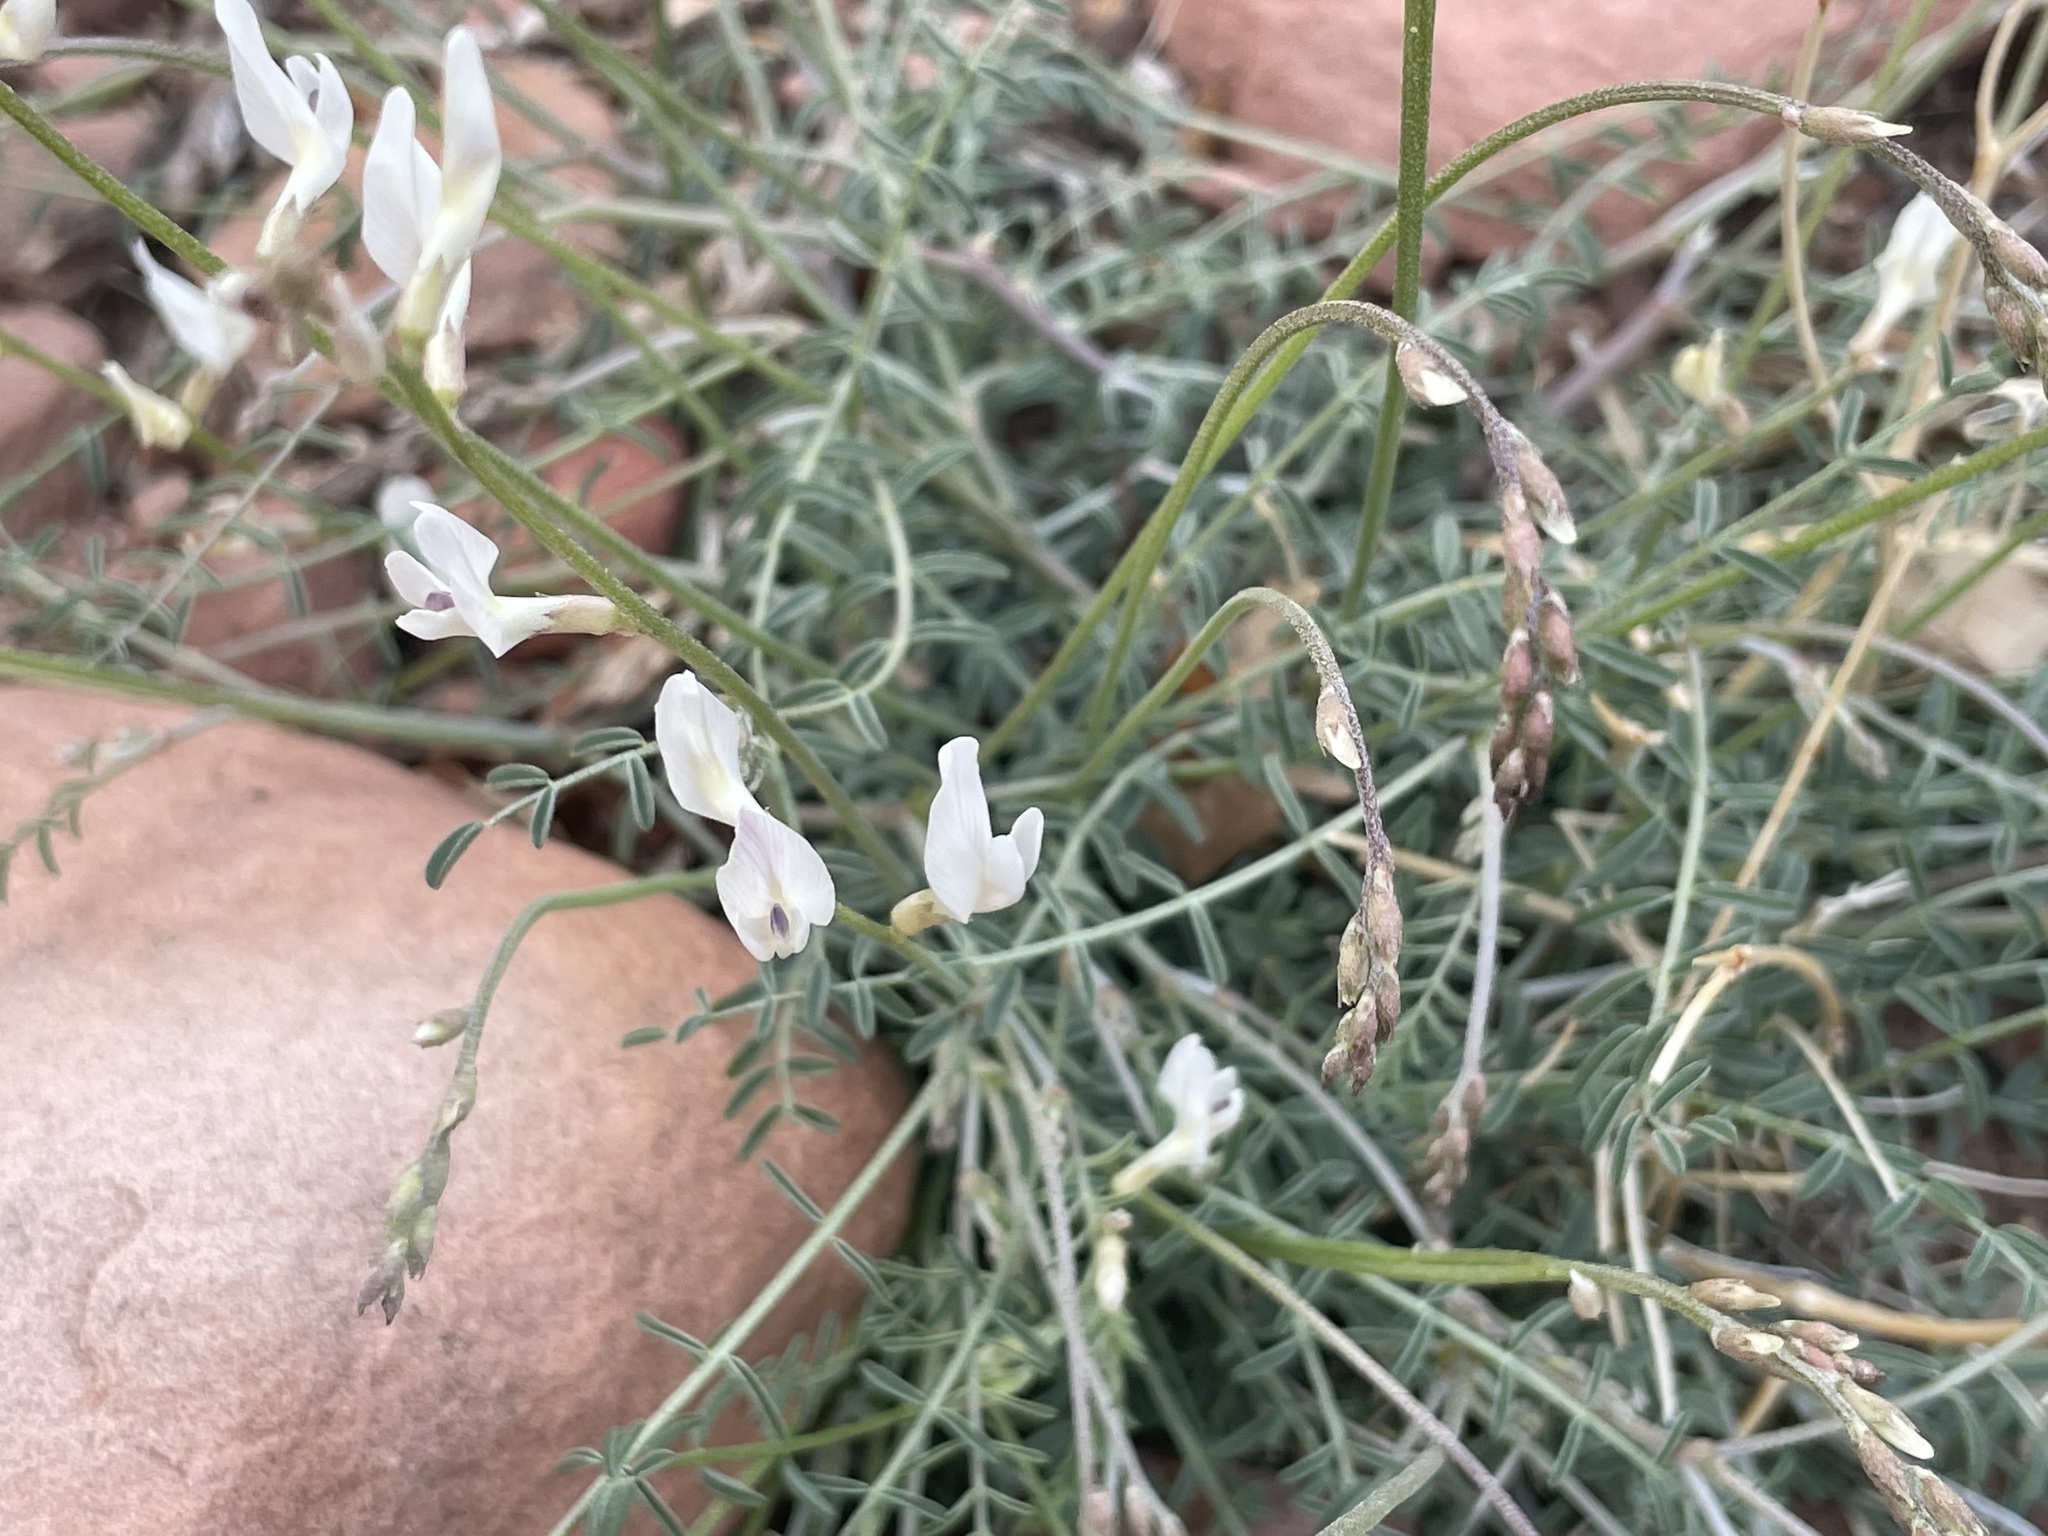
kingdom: Plantae
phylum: Tracheophyta
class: Magnoliopsida
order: Fabales
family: Fabaceae
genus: Astragalus
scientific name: Astragalus remotus
